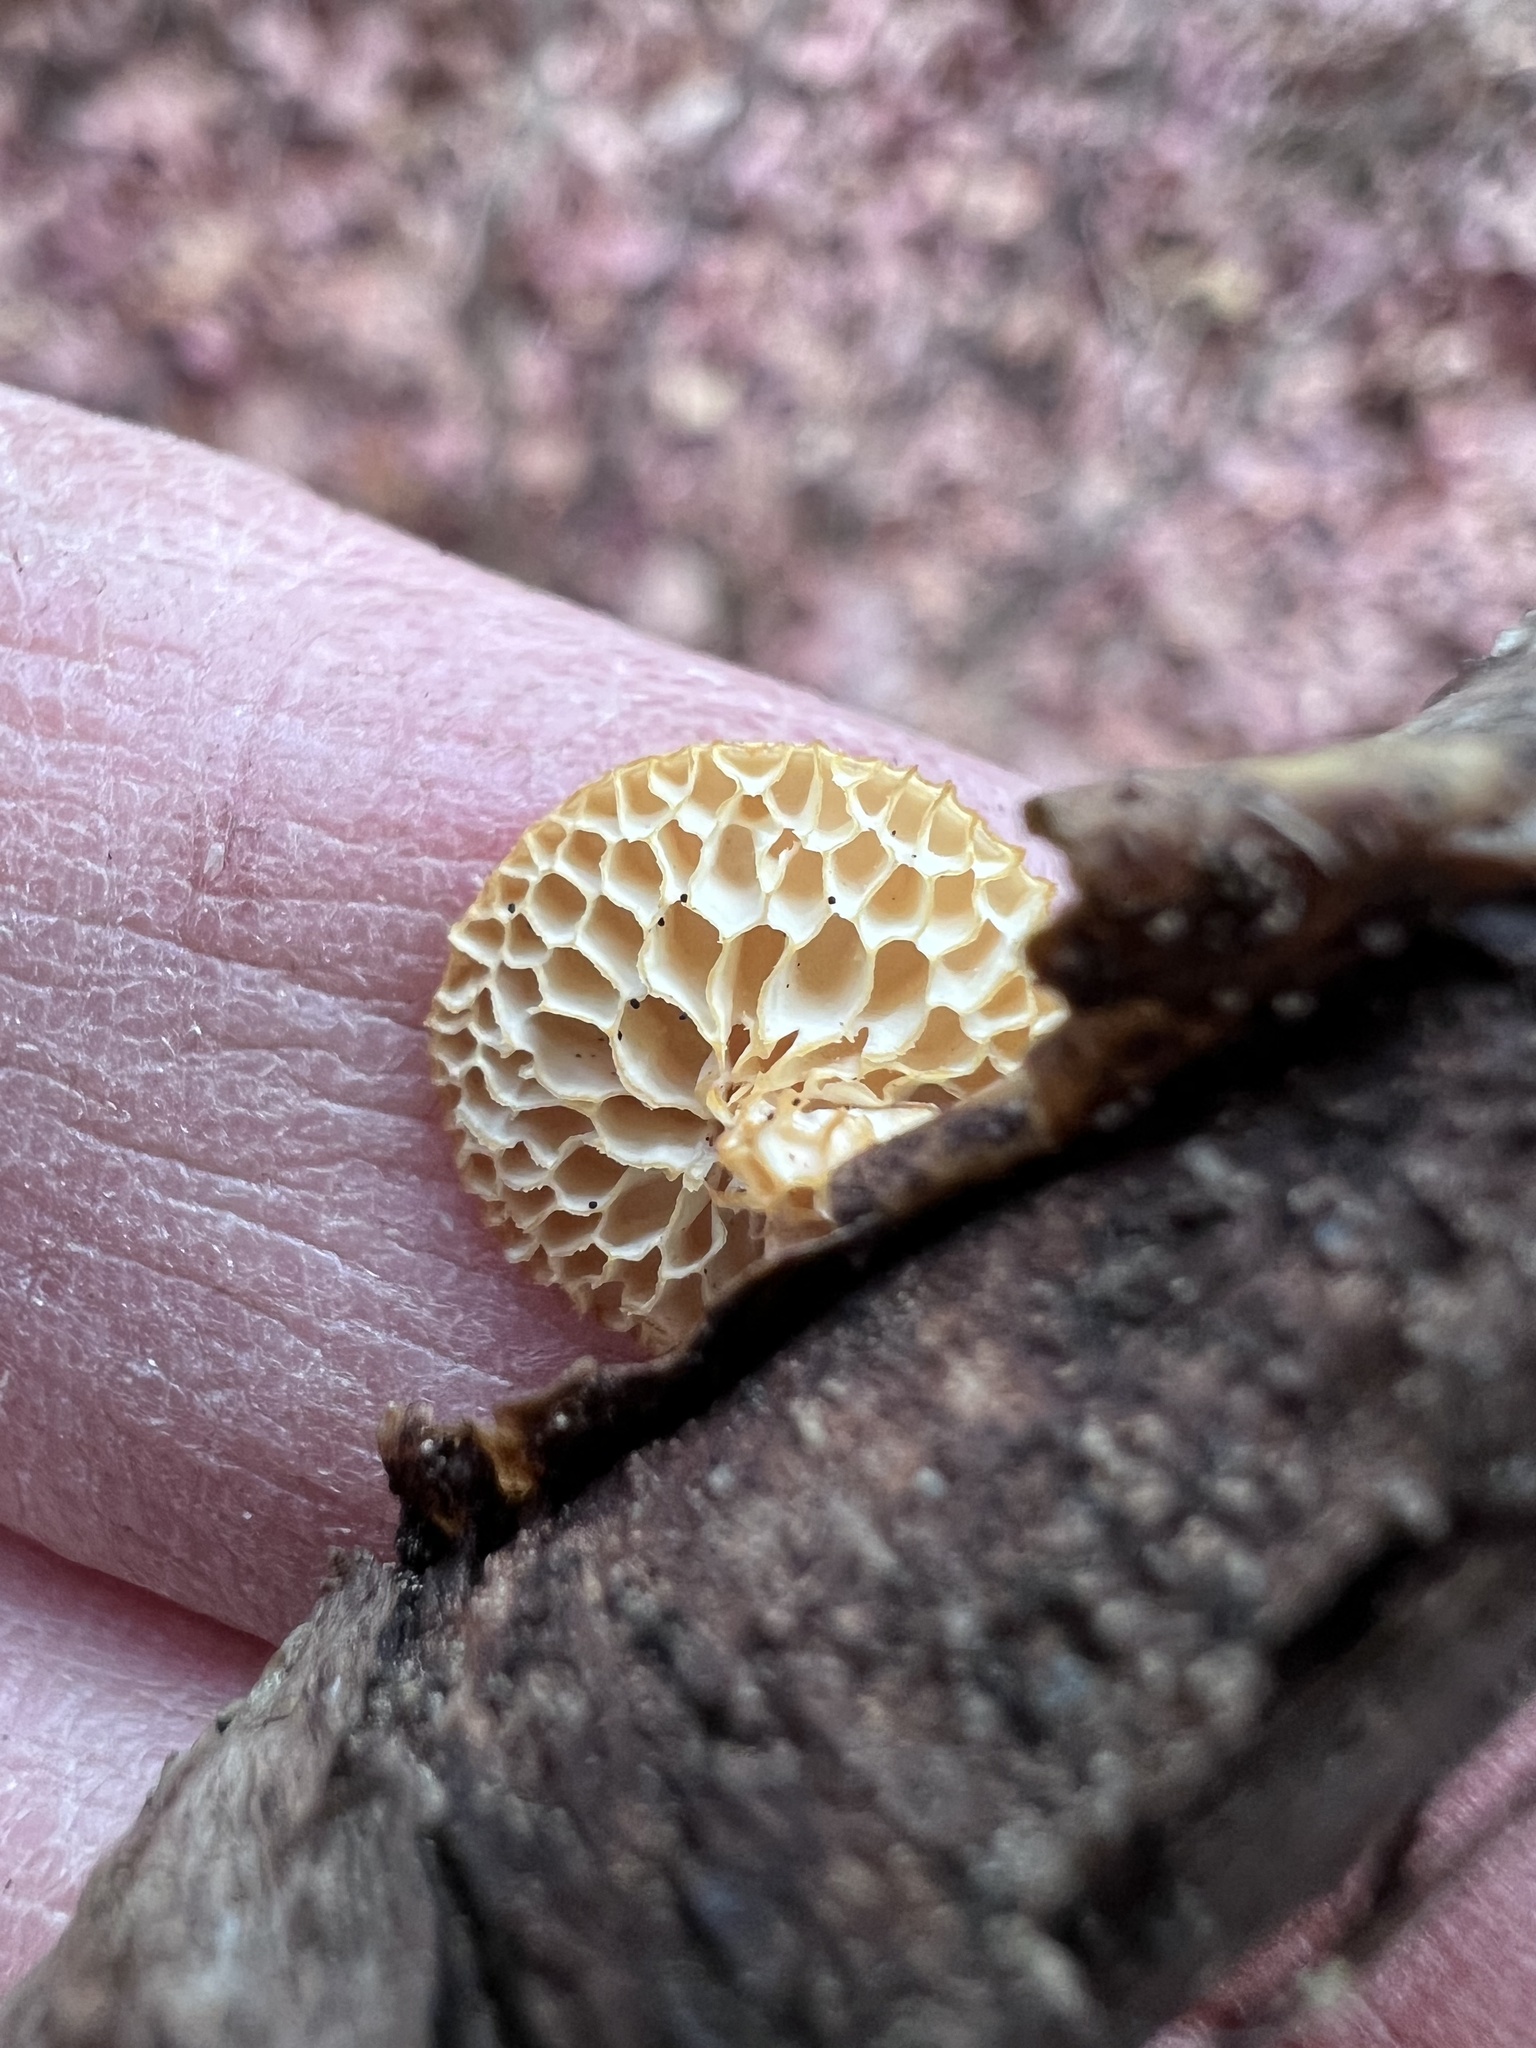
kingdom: Fungi
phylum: Basidiomycota
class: Agaricomycetes
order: Polyporales
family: Polyporaceae
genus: Neofavolus
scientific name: Neofavolus alveolaris
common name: Hexagonal-pored polypore
